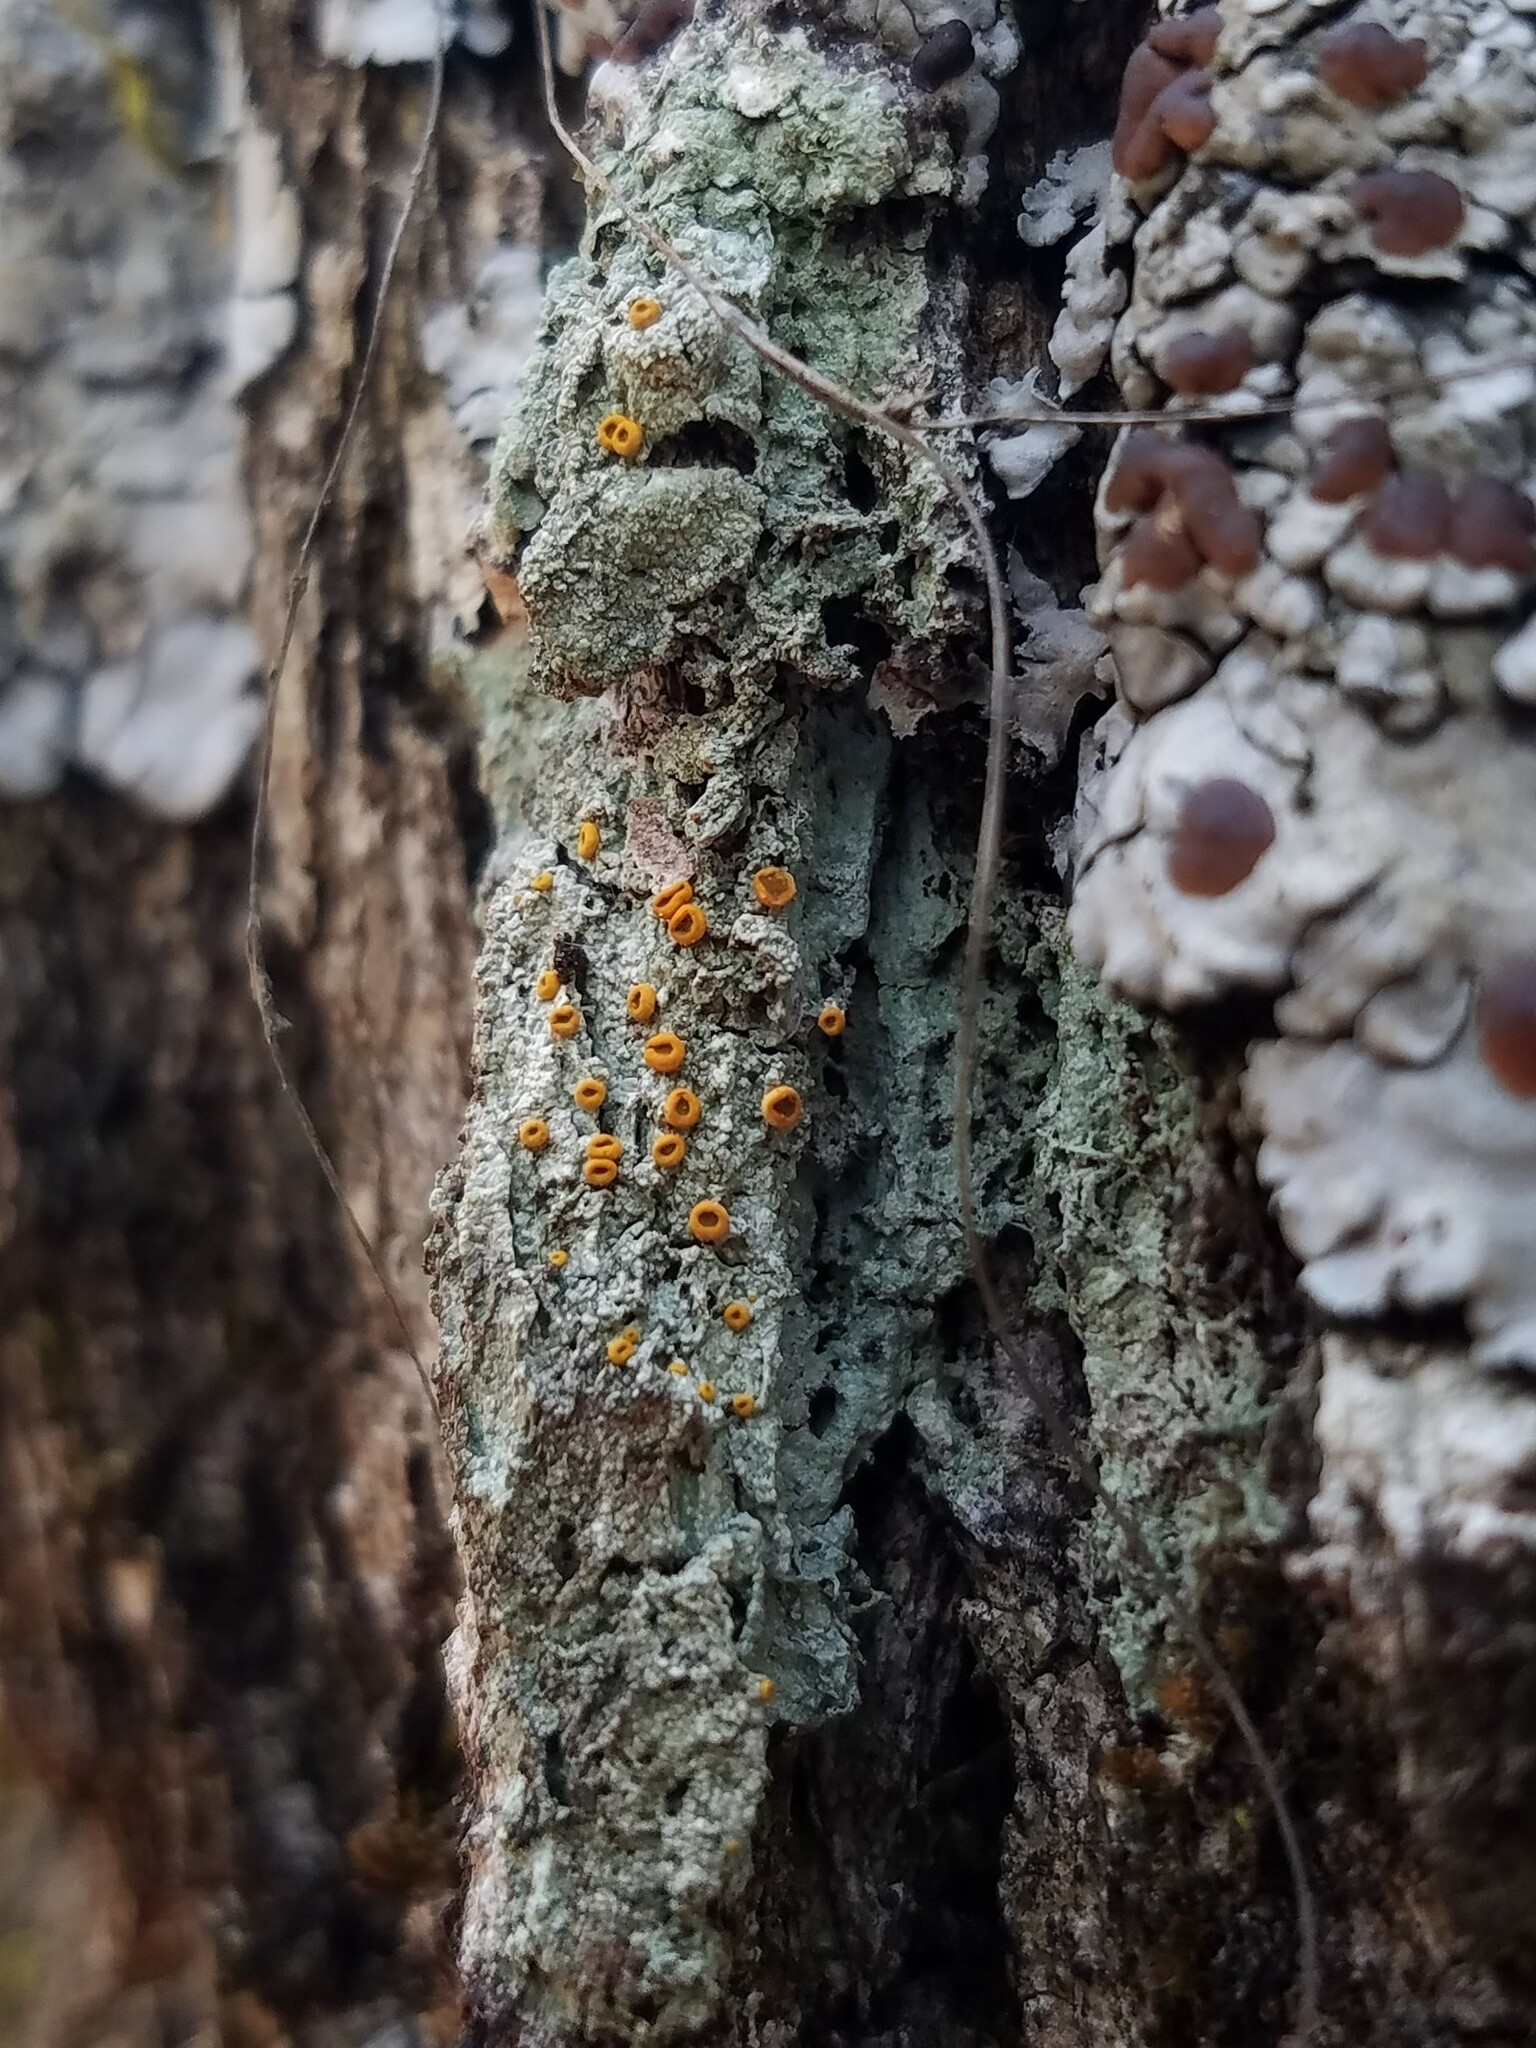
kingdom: Fungi
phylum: Ascomycota
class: Lecanoromycetes
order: Teloschistales
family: Brigantiaeaceae
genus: Brigantiaea
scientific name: Brigantiaea leucoxantha
